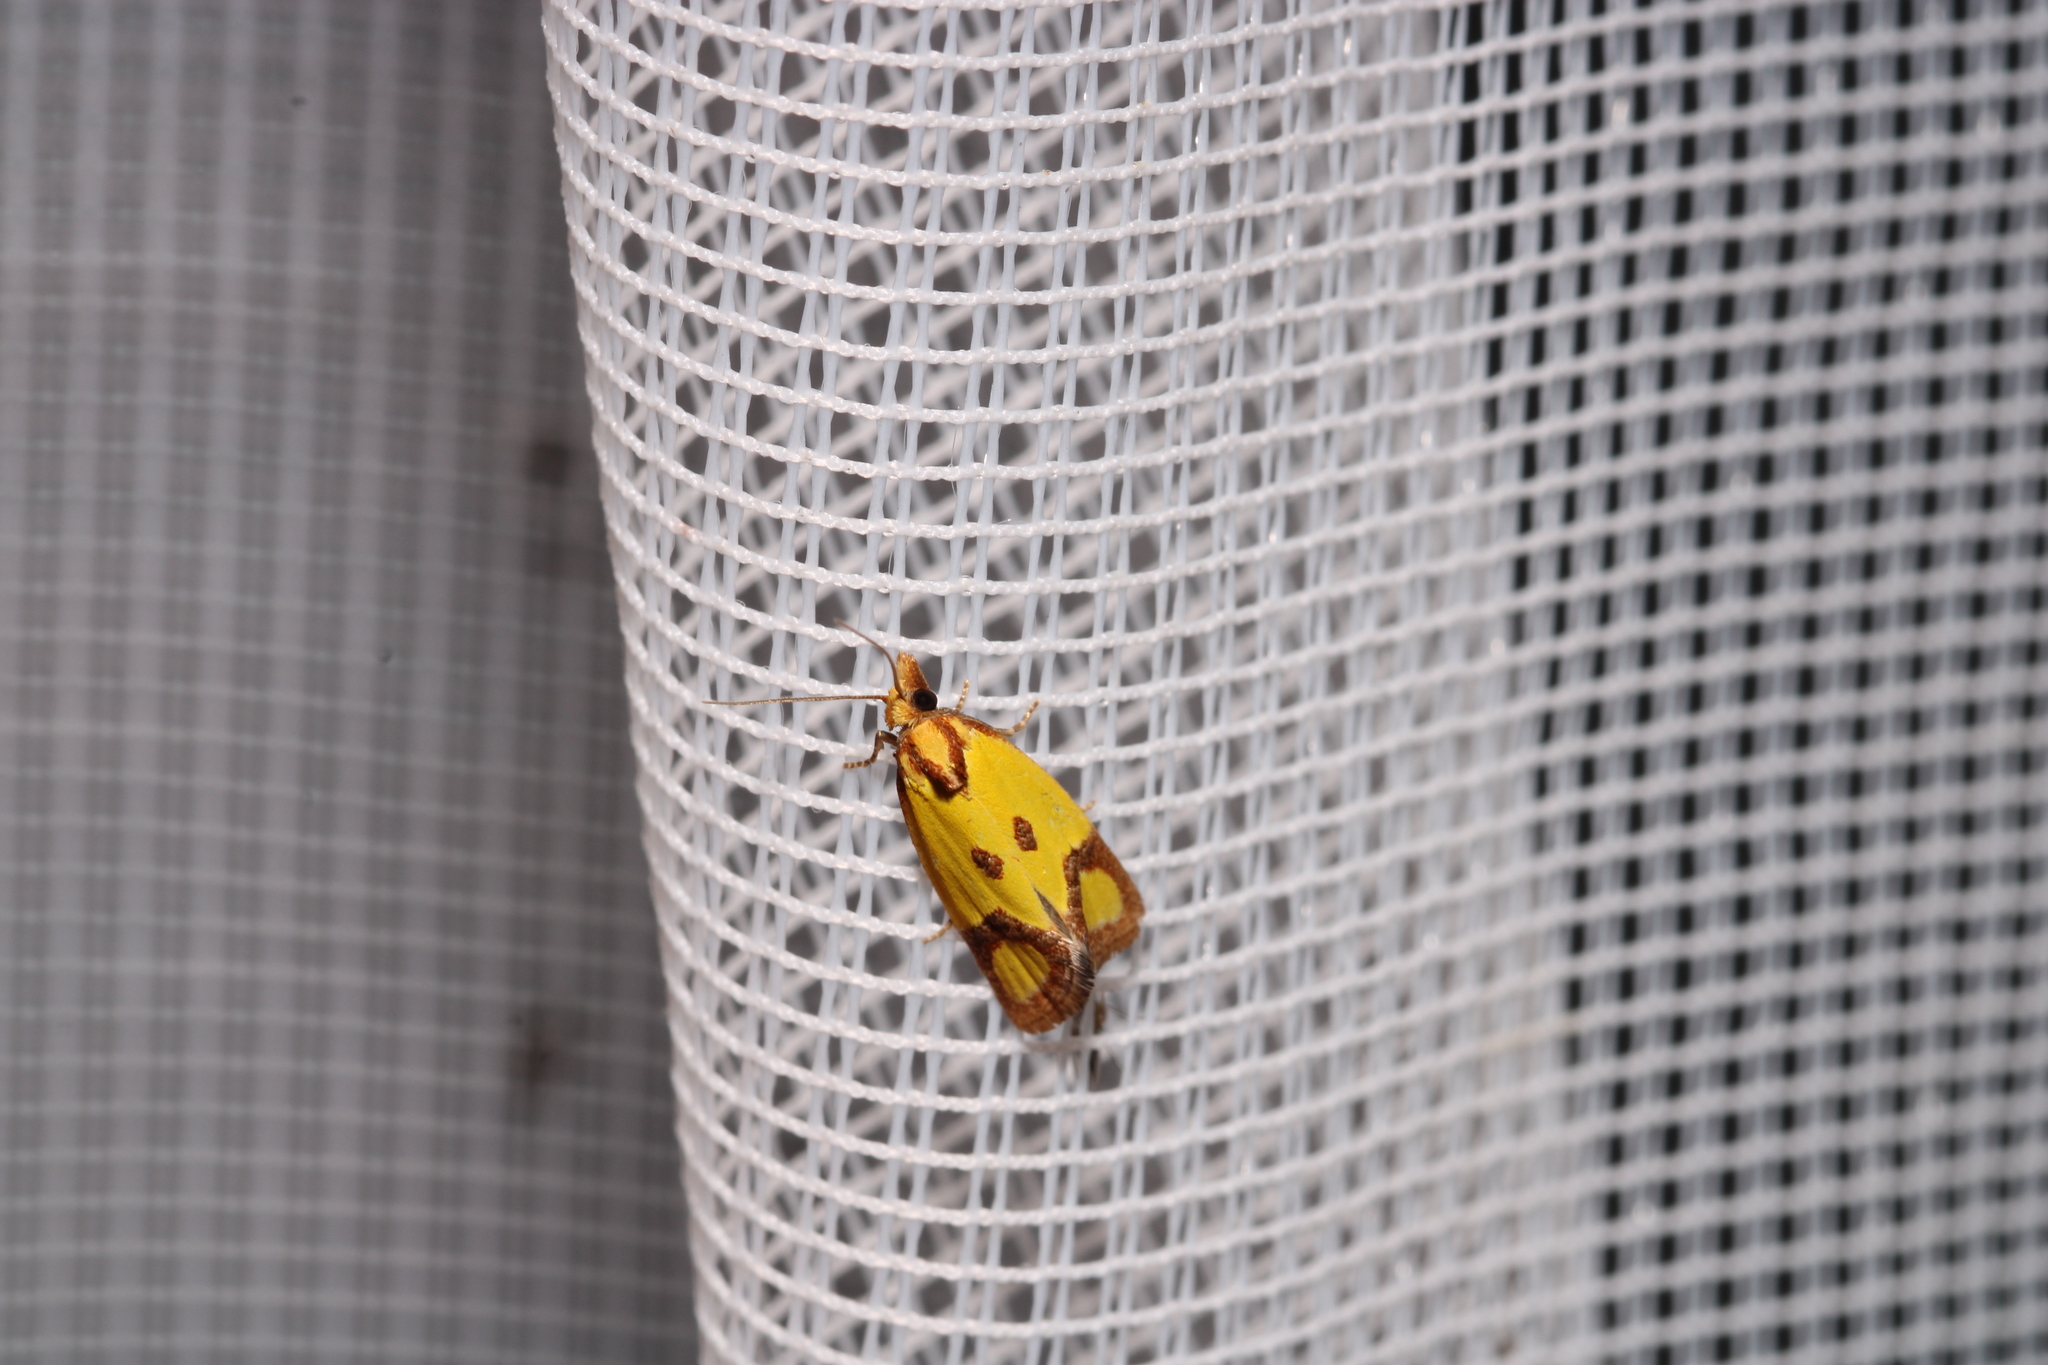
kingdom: Animalia
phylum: Arthropoda
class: Insecta
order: Lepidoptera
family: Tortricidae
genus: Agapeta
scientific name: Agapeta zoegana
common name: Sulfur knapweed root moth
